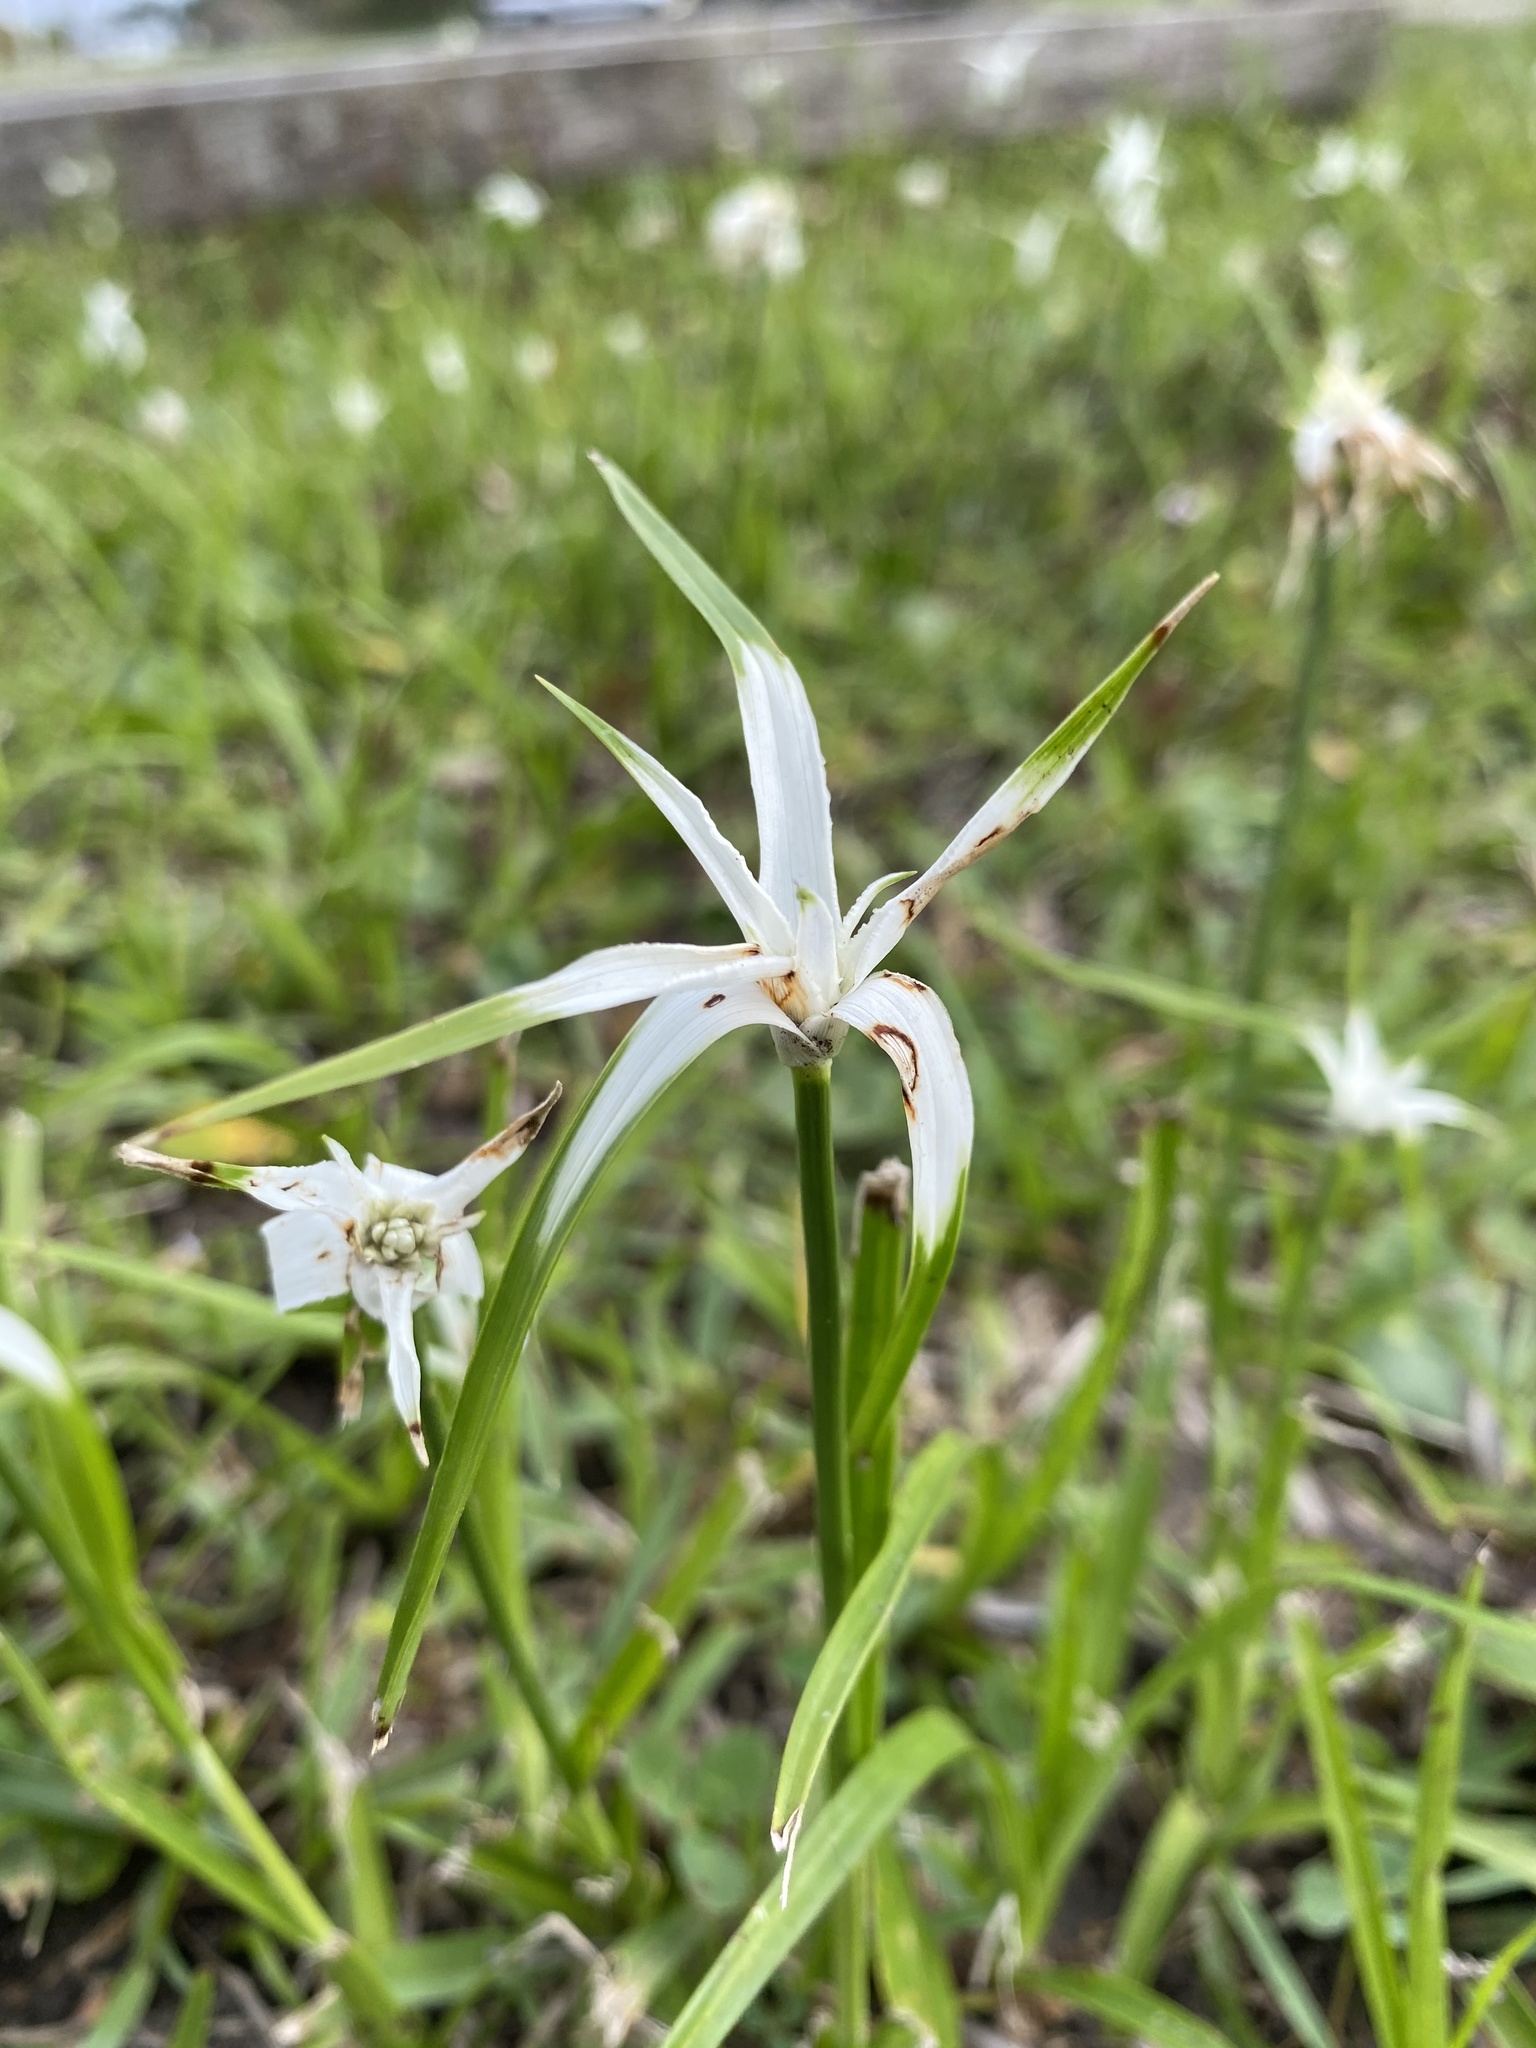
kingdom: Plantae
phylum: Tracheophyta
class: Liliopsida
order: Poales
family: Cyperaceae
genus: Rhynchospora
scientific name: Rhynchospora colorata
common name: Star sedge
